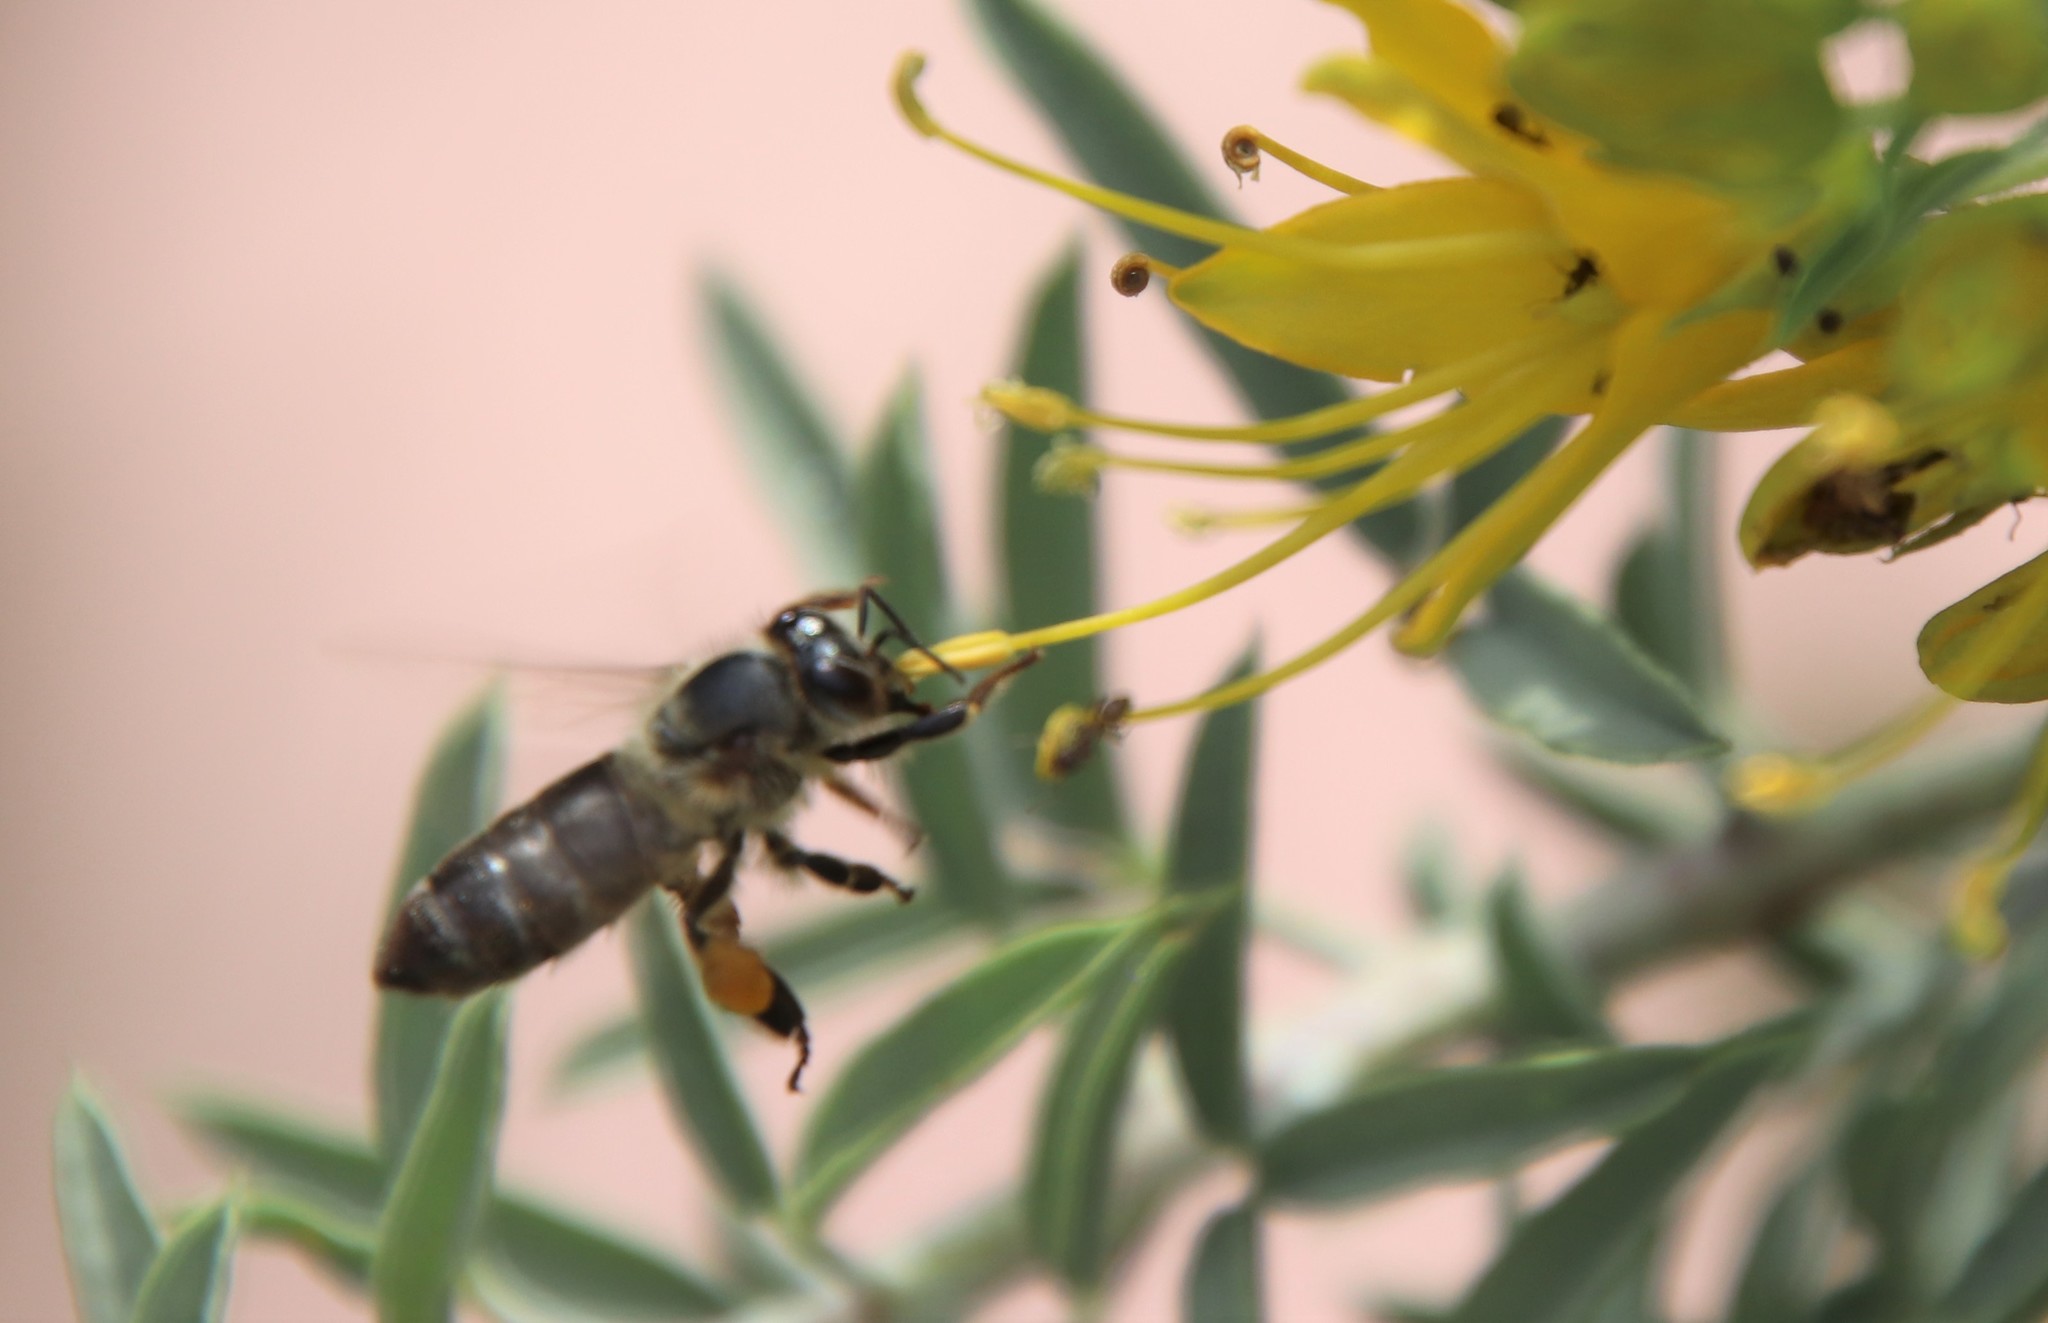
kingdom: Animalia
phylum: Arthropoda
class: Insecta
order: Hymenoptera
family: Apidae
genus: Apis
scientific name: Apis mellifera
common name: Honey bee
